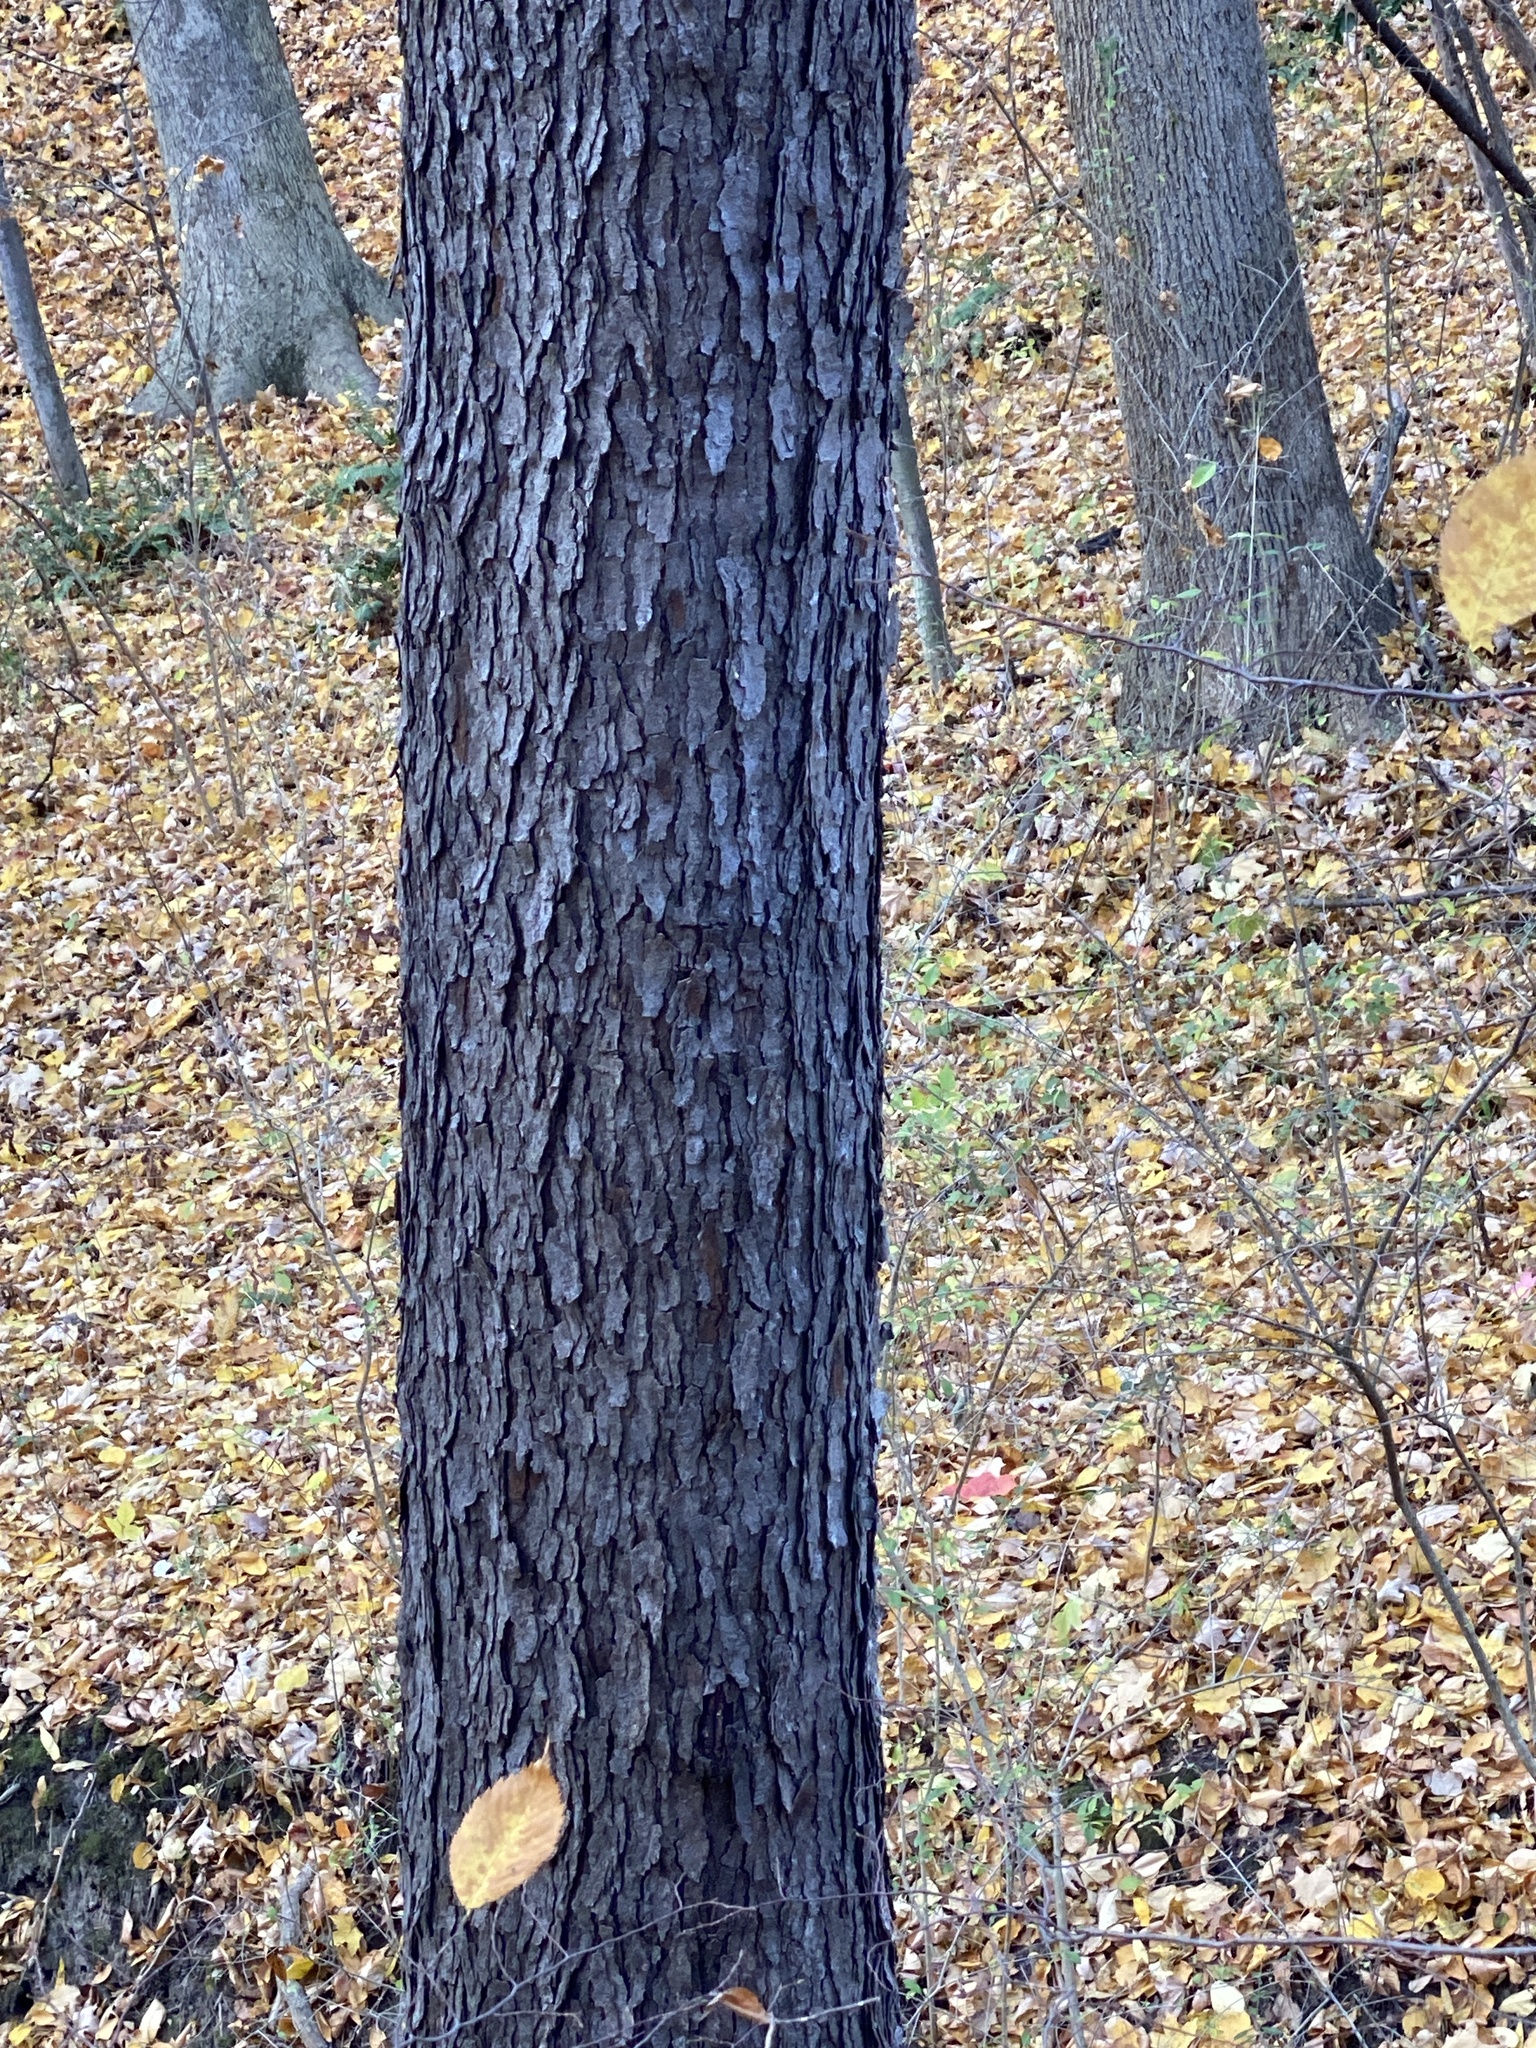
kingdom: Plantae
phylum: Tracheophyta
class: Magnoliopsida
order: Rosales
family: Rosaceae
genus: Prunus
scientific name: Prunus serotina
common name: Black cherry
